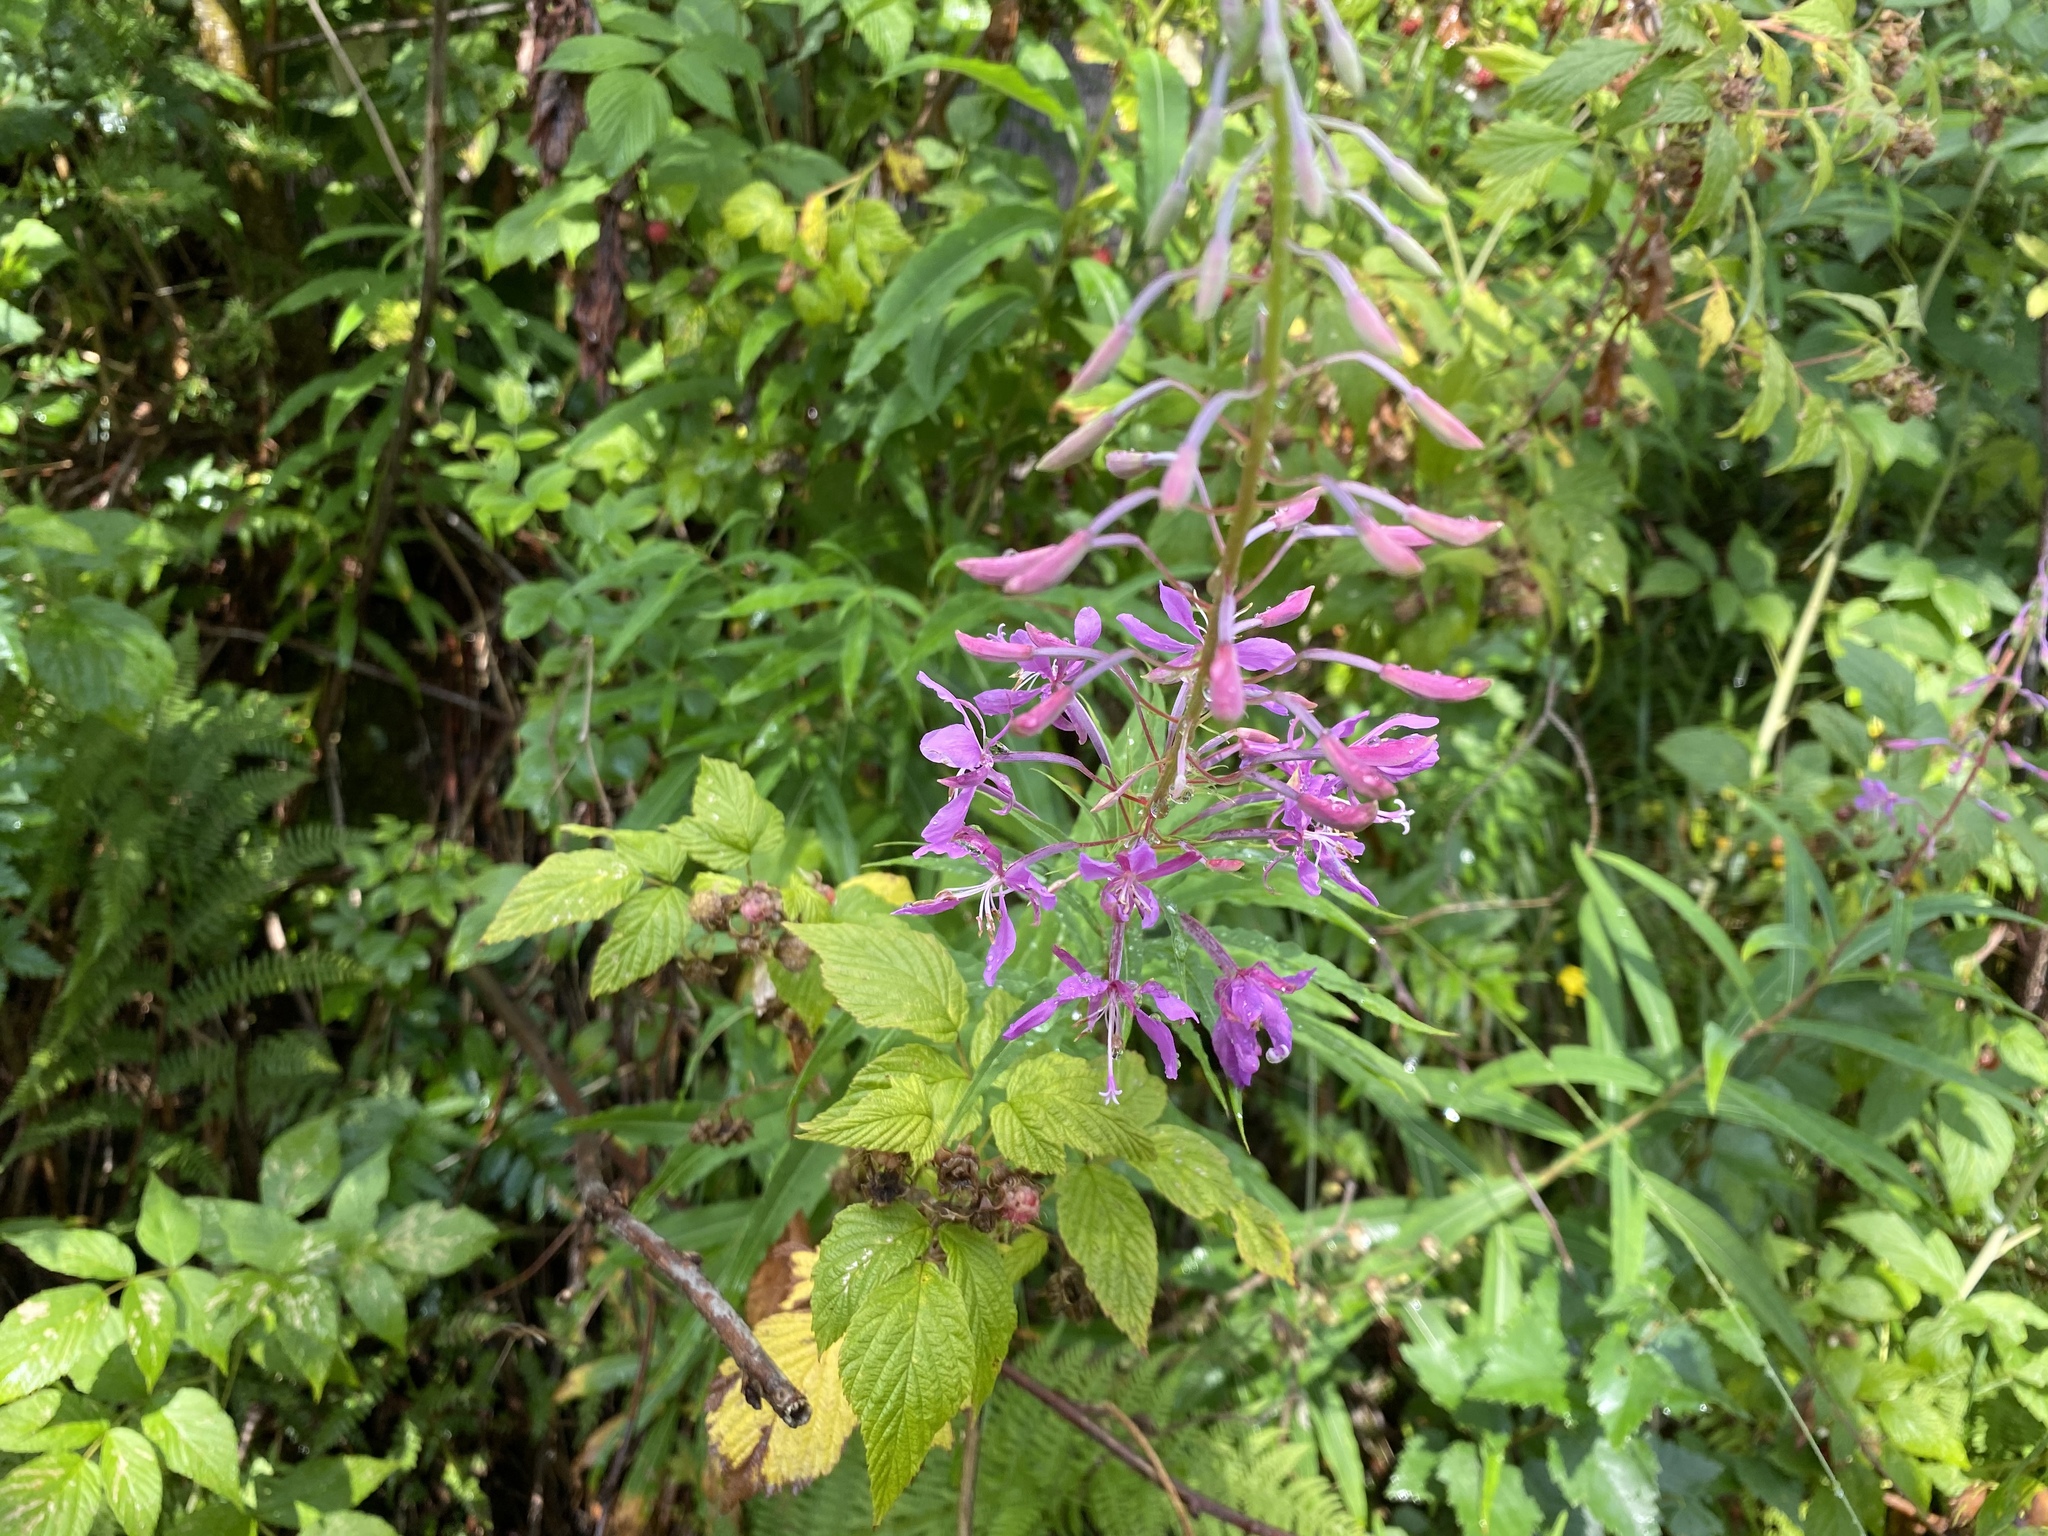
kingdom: Plantae
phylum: Tracheophyta
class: Magnoliopsida
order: Myrtales
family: Onagraceae
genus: Chamaenerion
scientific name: Chamaenerion angustifolium
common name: Fireweed
